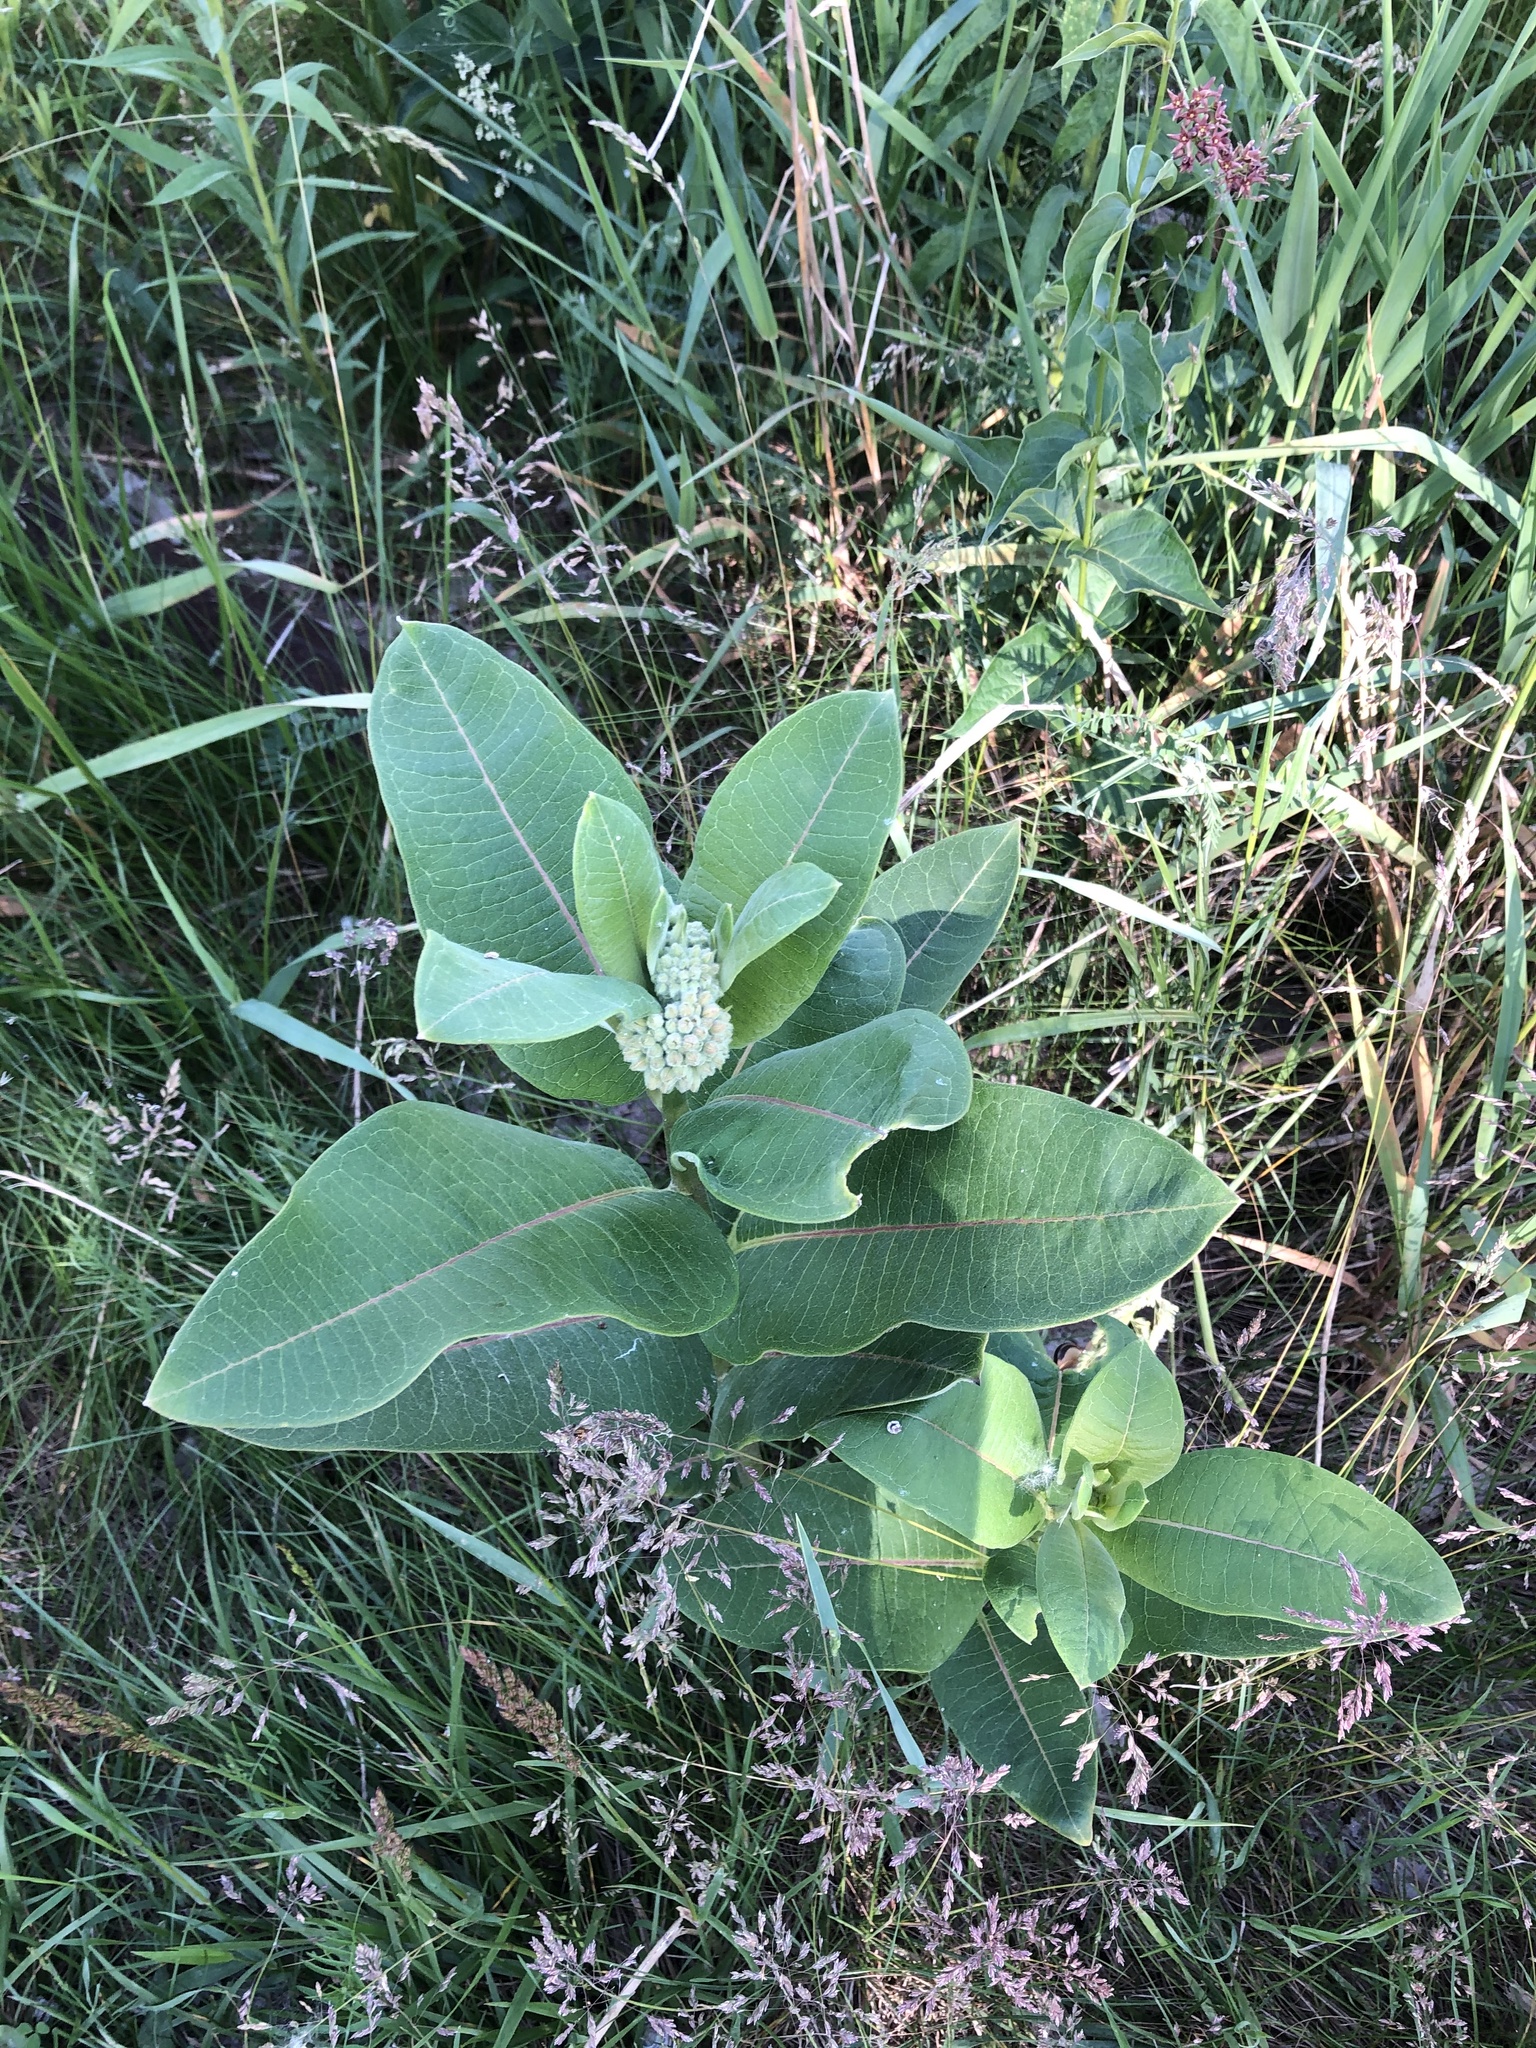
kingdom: Plantae
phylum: Tracheophyta
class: Magnoliopsida
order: Gentianales
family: Apocynaceae
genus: Asclepias
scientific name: Asclepias syriaca
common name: Common milkweed
